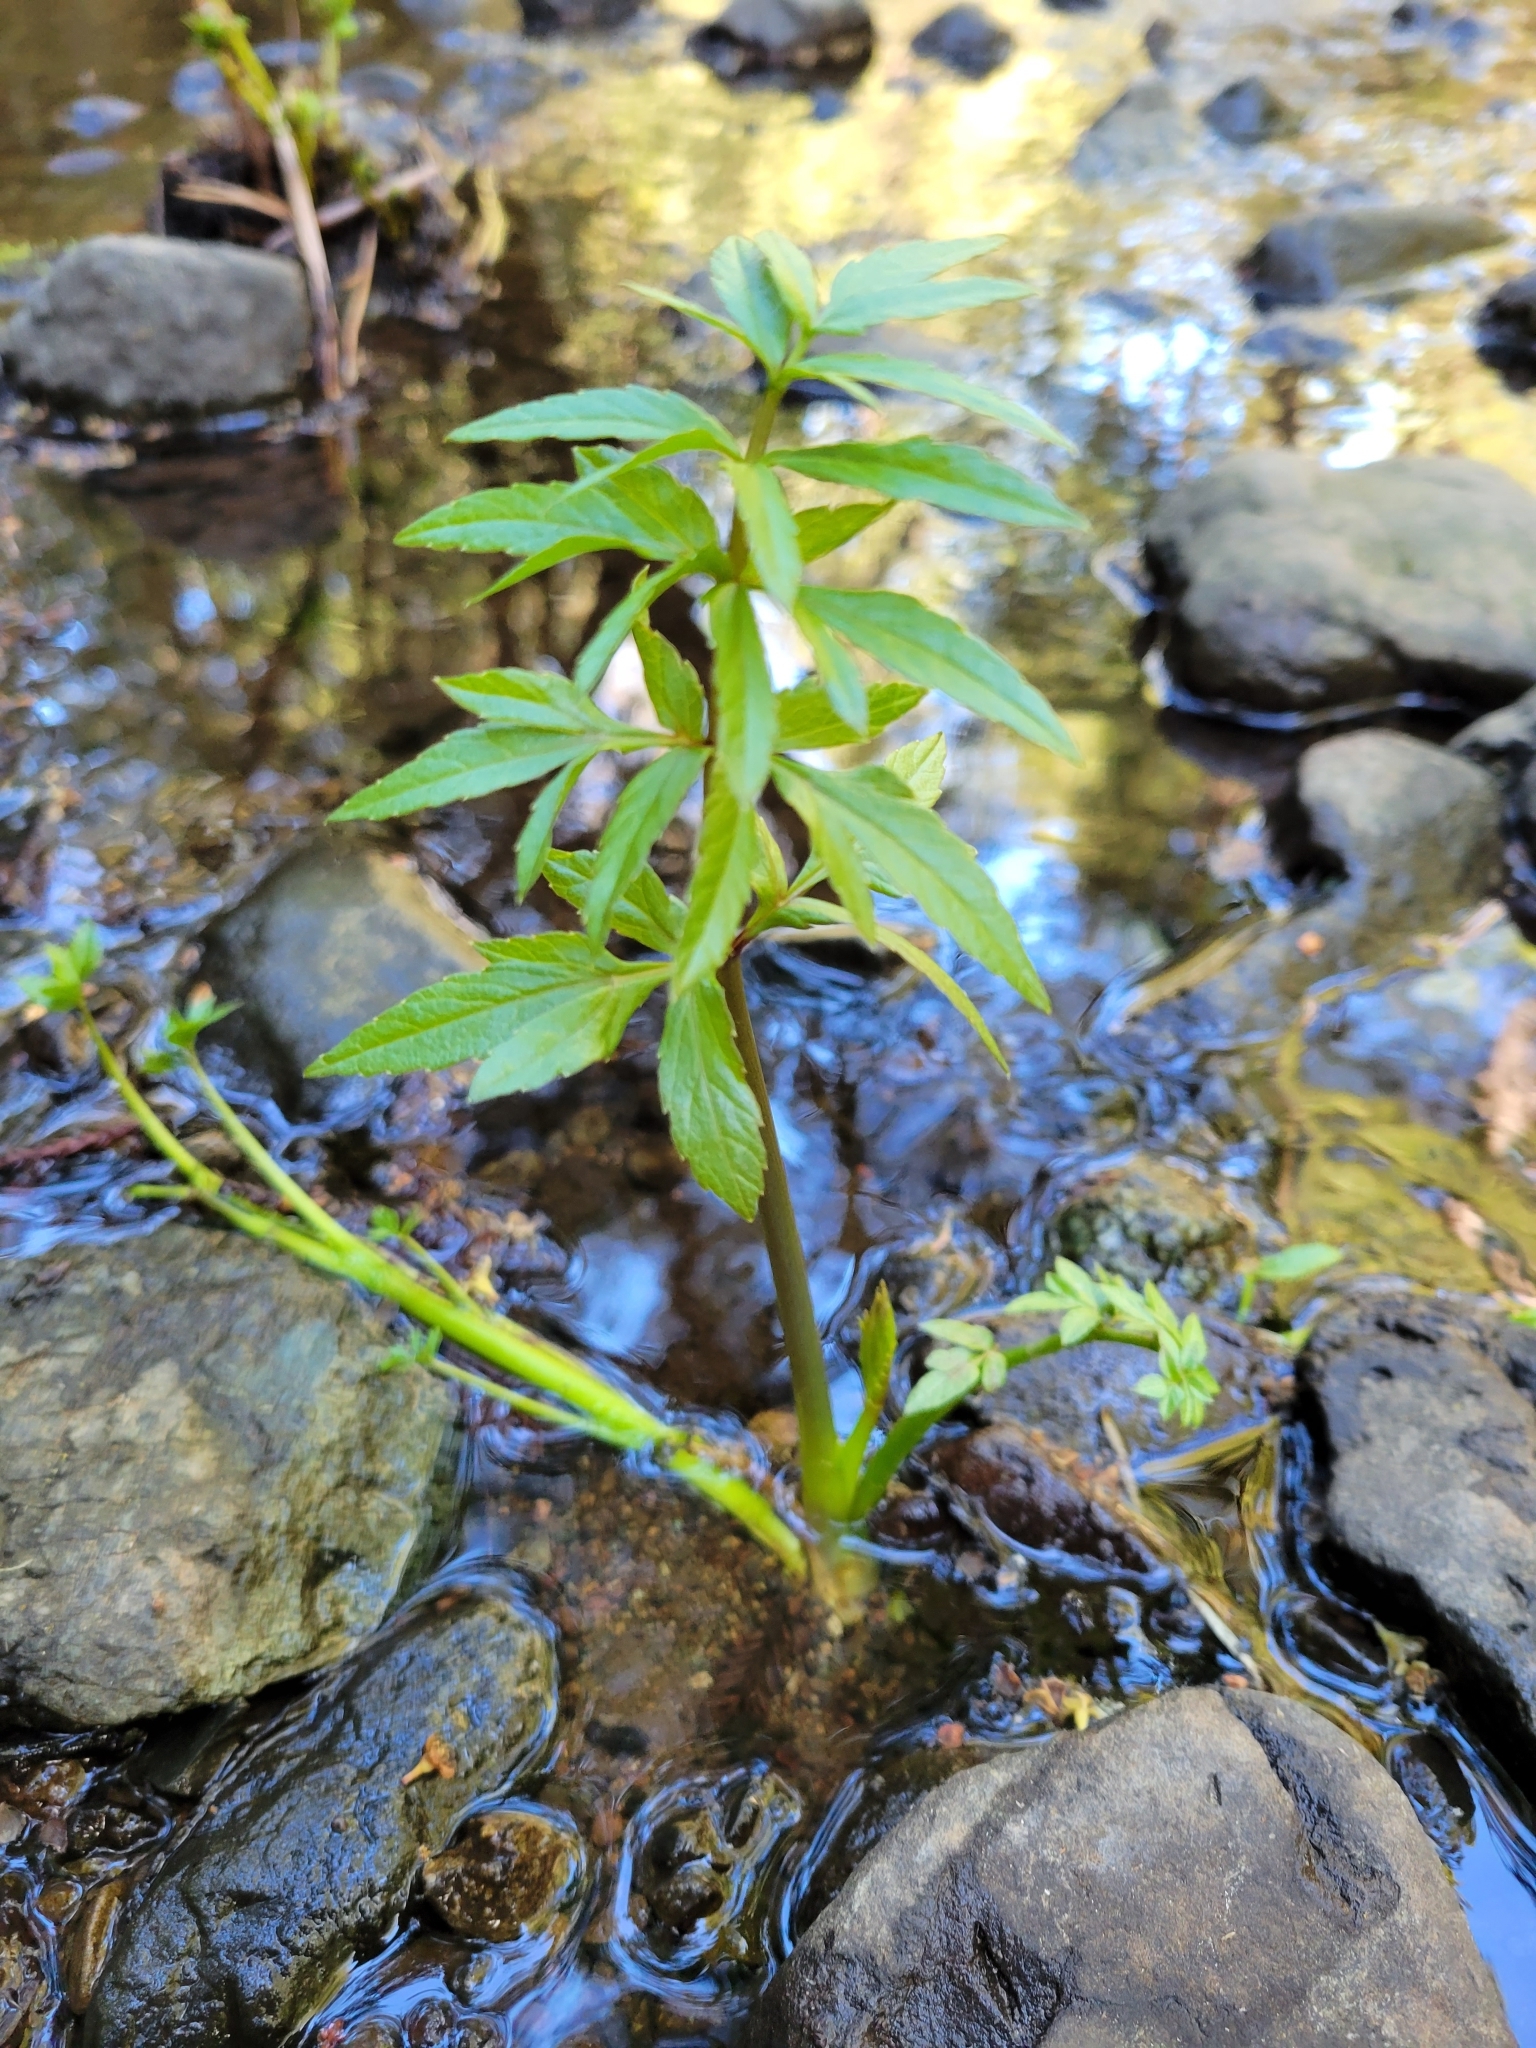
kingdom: Plantae
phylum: Tracheophyta
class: Magnoliopsida
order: Apiales
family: Apiaceae
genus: Cicuta
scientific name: Cicuta douglasii
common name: Western water-hemlock
